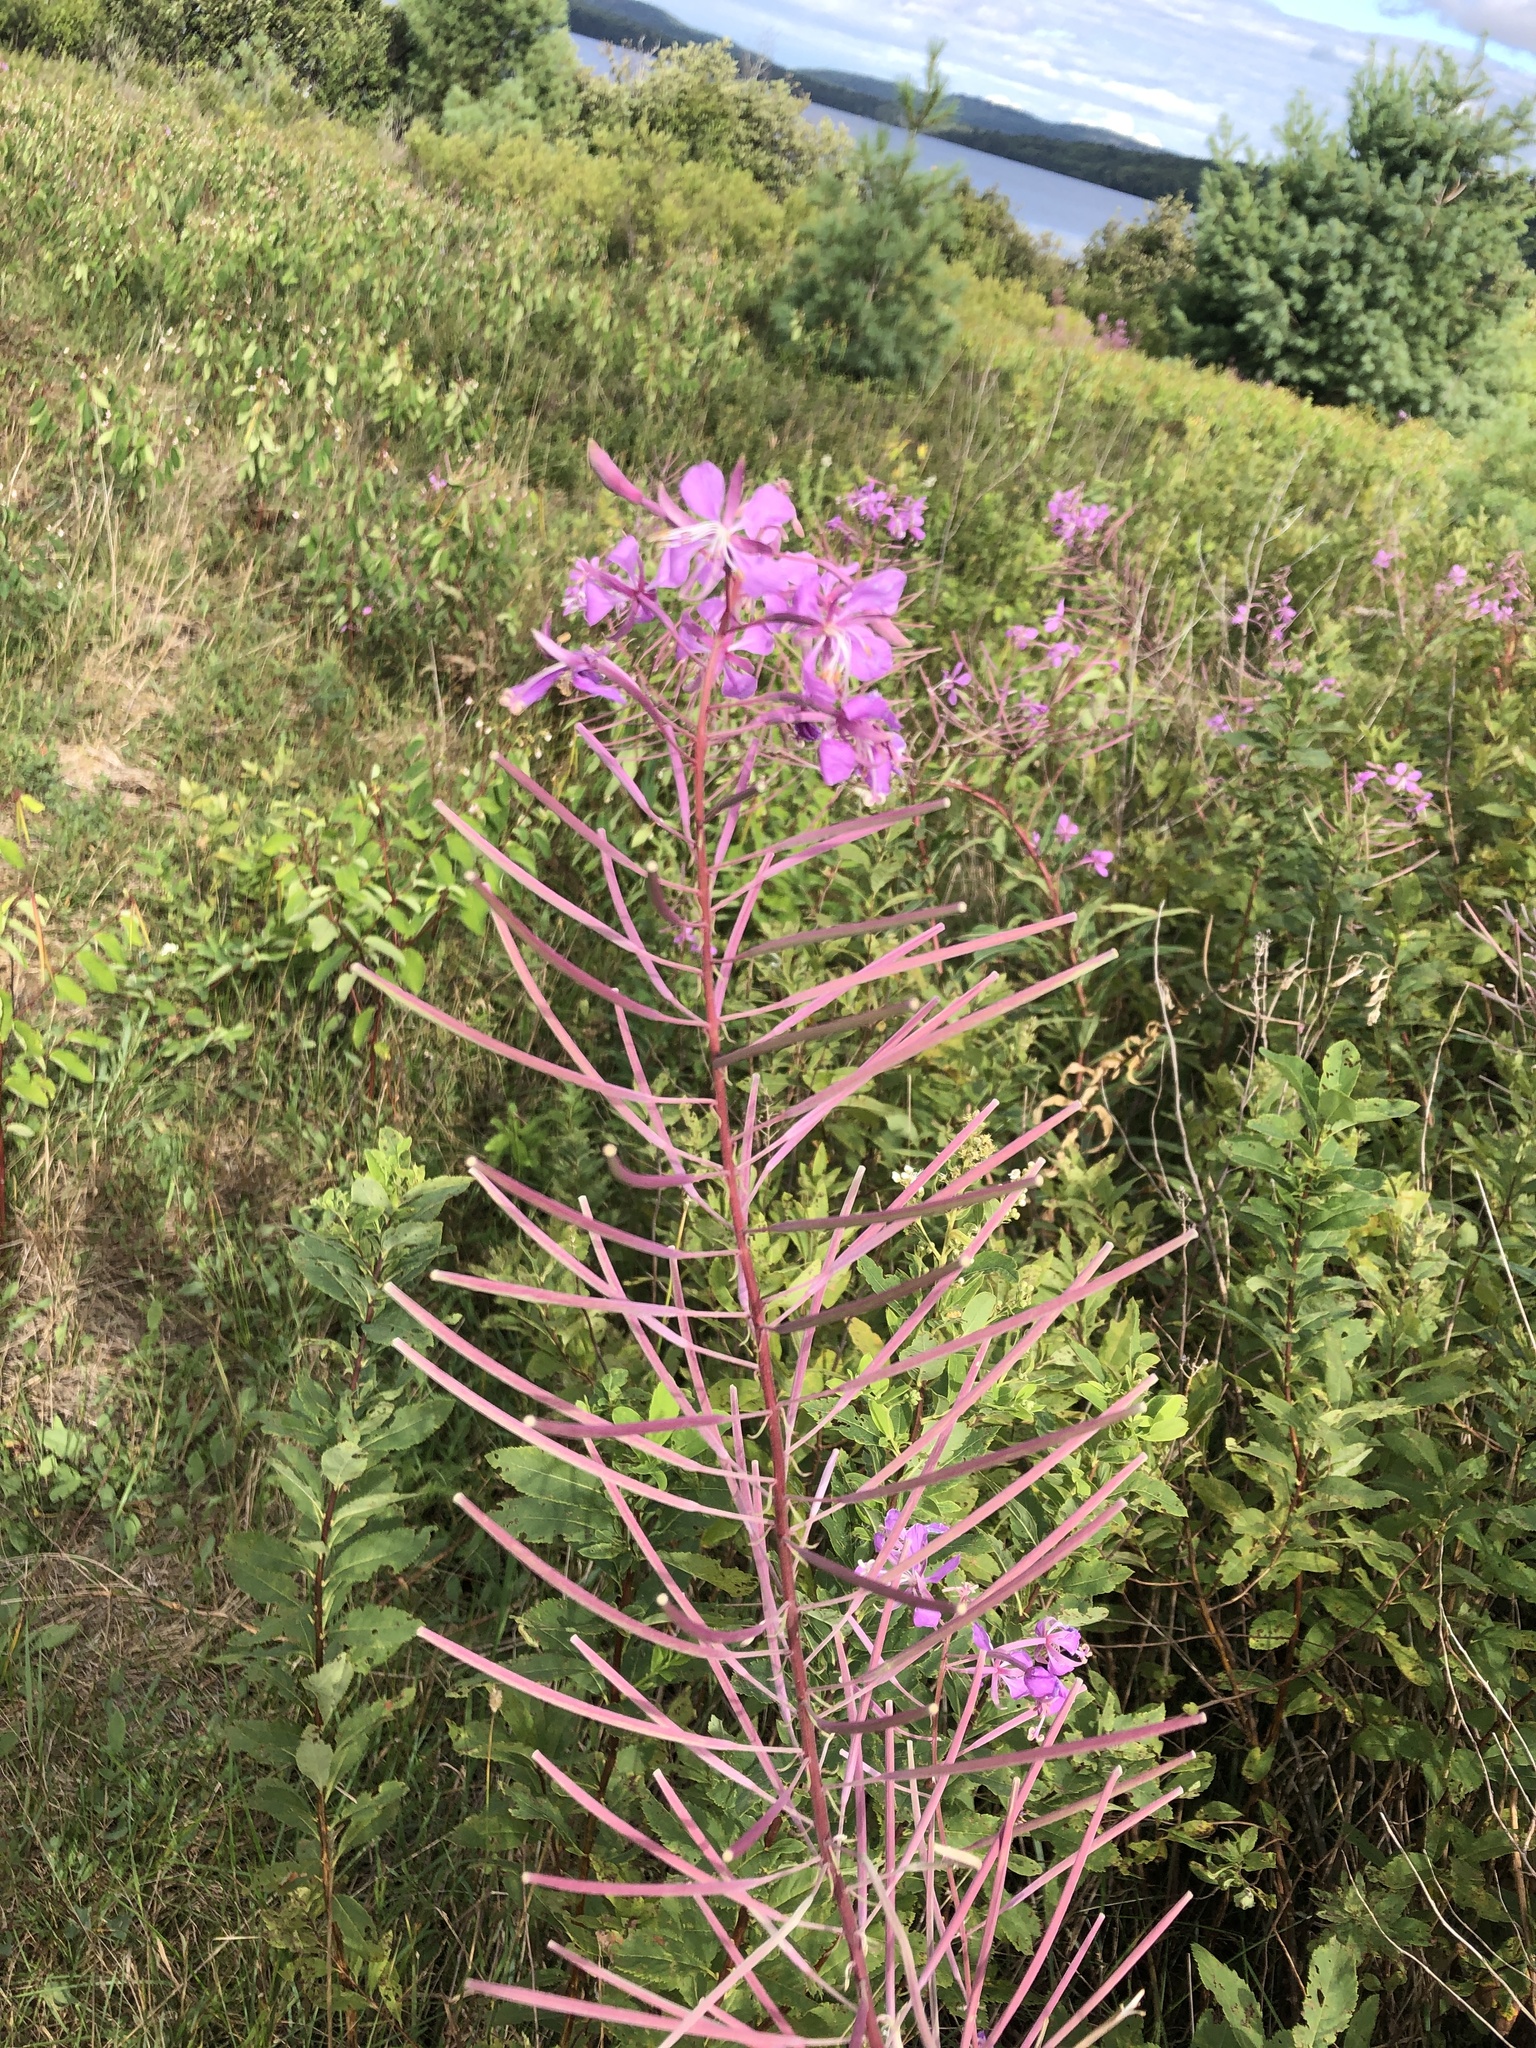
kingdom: Plantae
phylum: Tracheophyta
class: Magnoliopsida
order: Myrtales
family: Onagraceae
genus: Chamaenerion
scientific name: Chamaenerion angustifolium
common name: Fireweed
